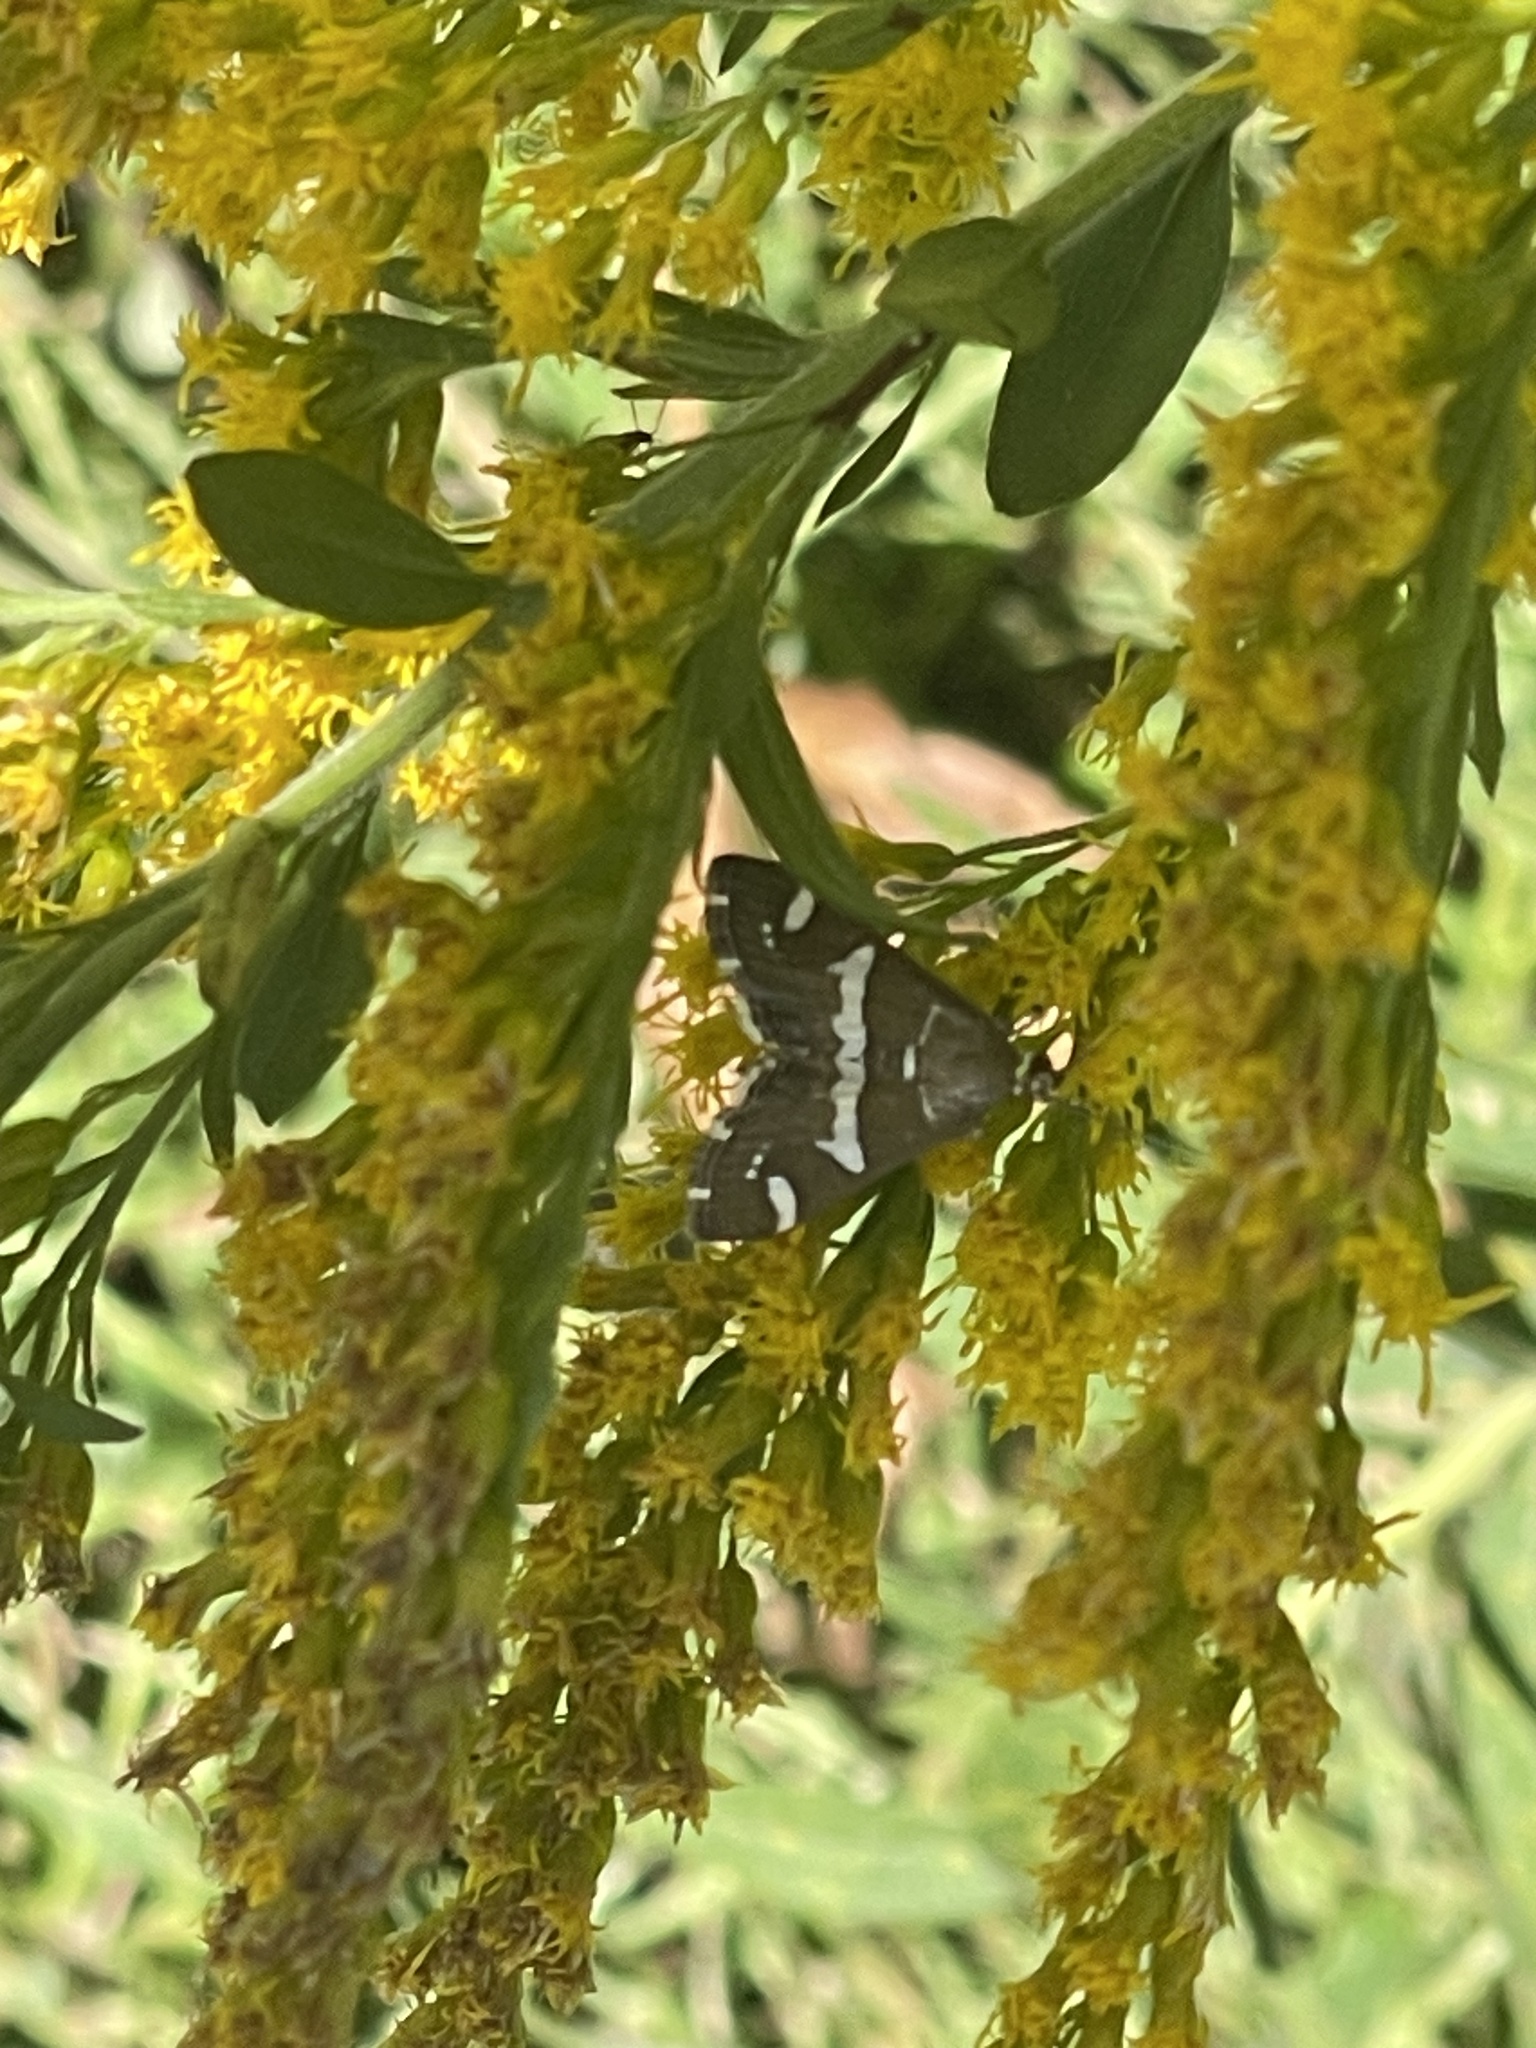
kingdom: Animalia
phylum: Arthropoda
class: Insecta
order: Lepidoptera
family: Crambidae
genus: Spoladea
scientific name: Spoladea recurvalis
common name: Beet webworm moth
